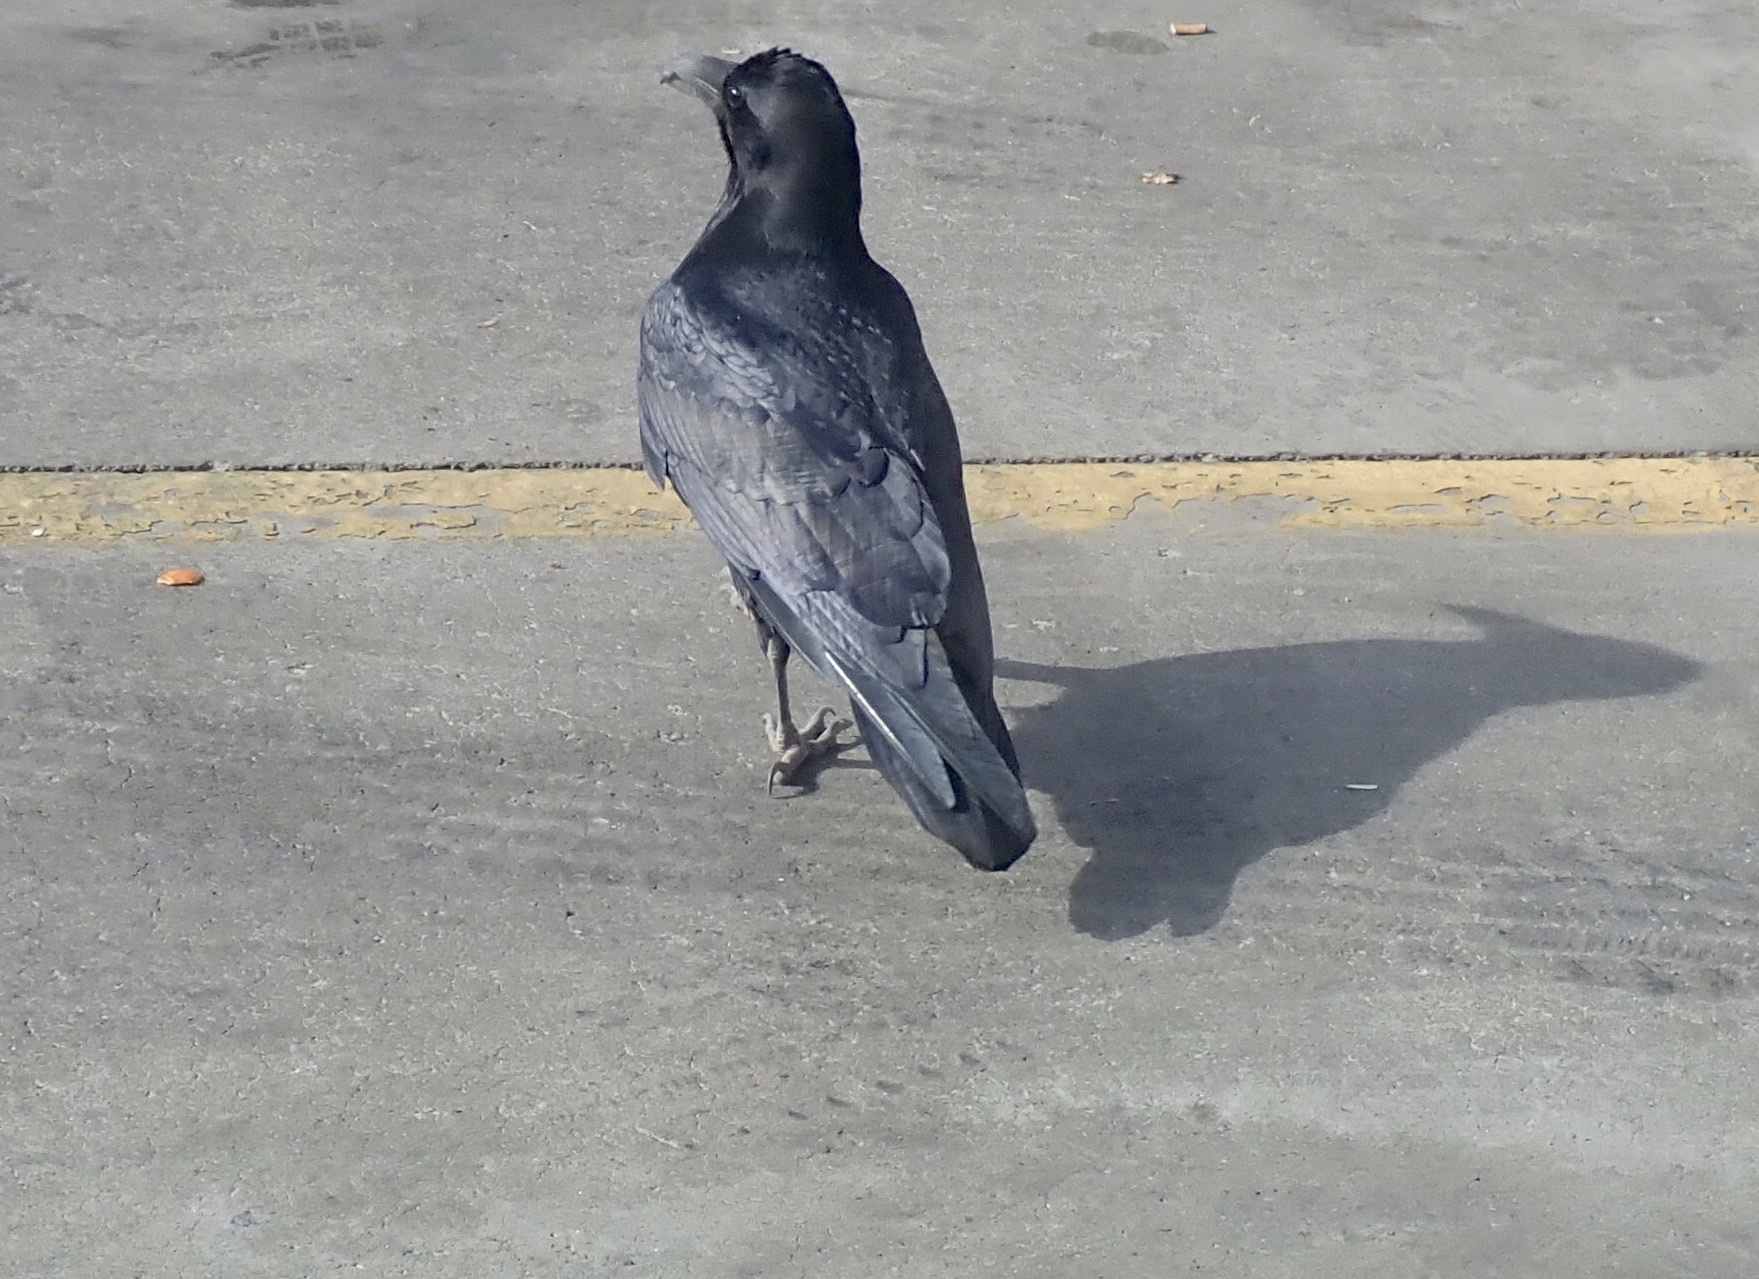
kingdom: Animalia
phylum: Chordata
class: Aves
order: Passeriformes
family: Corvidae
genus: Corvus
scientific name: Corvus corax
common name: Common raven
